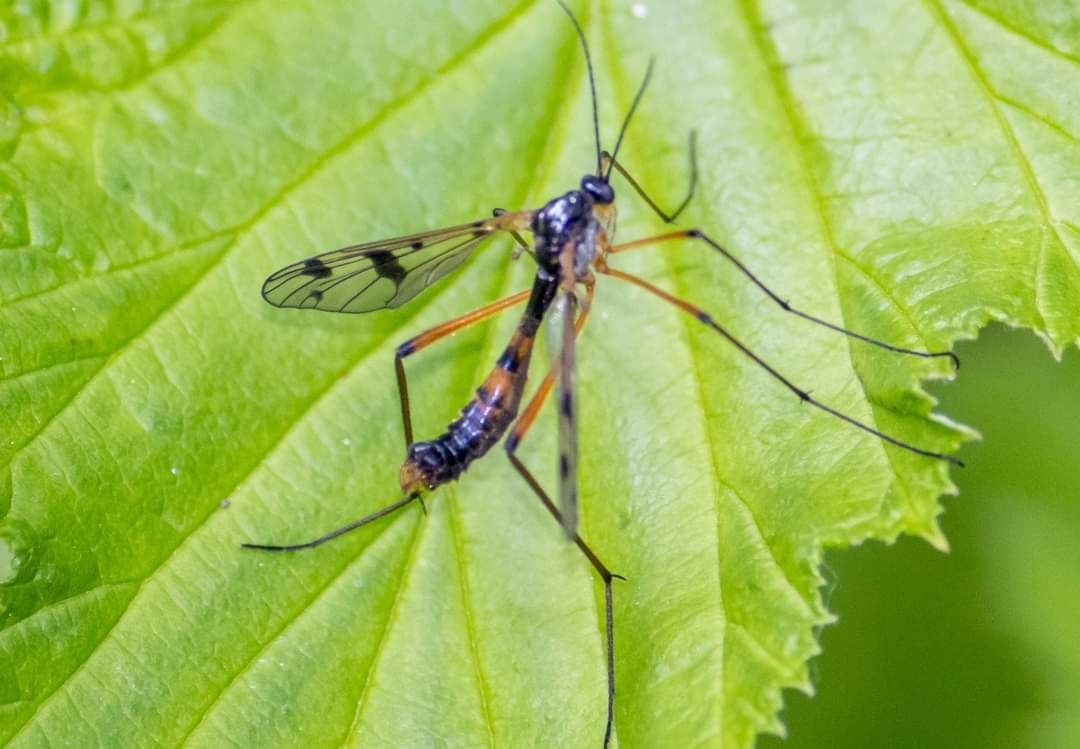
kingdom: Animalia
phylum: Arthropoda
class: Insecta
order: Diptera
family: Ptychopteridae
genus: Ptychoptera
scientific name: Ptychoptera contaminata
